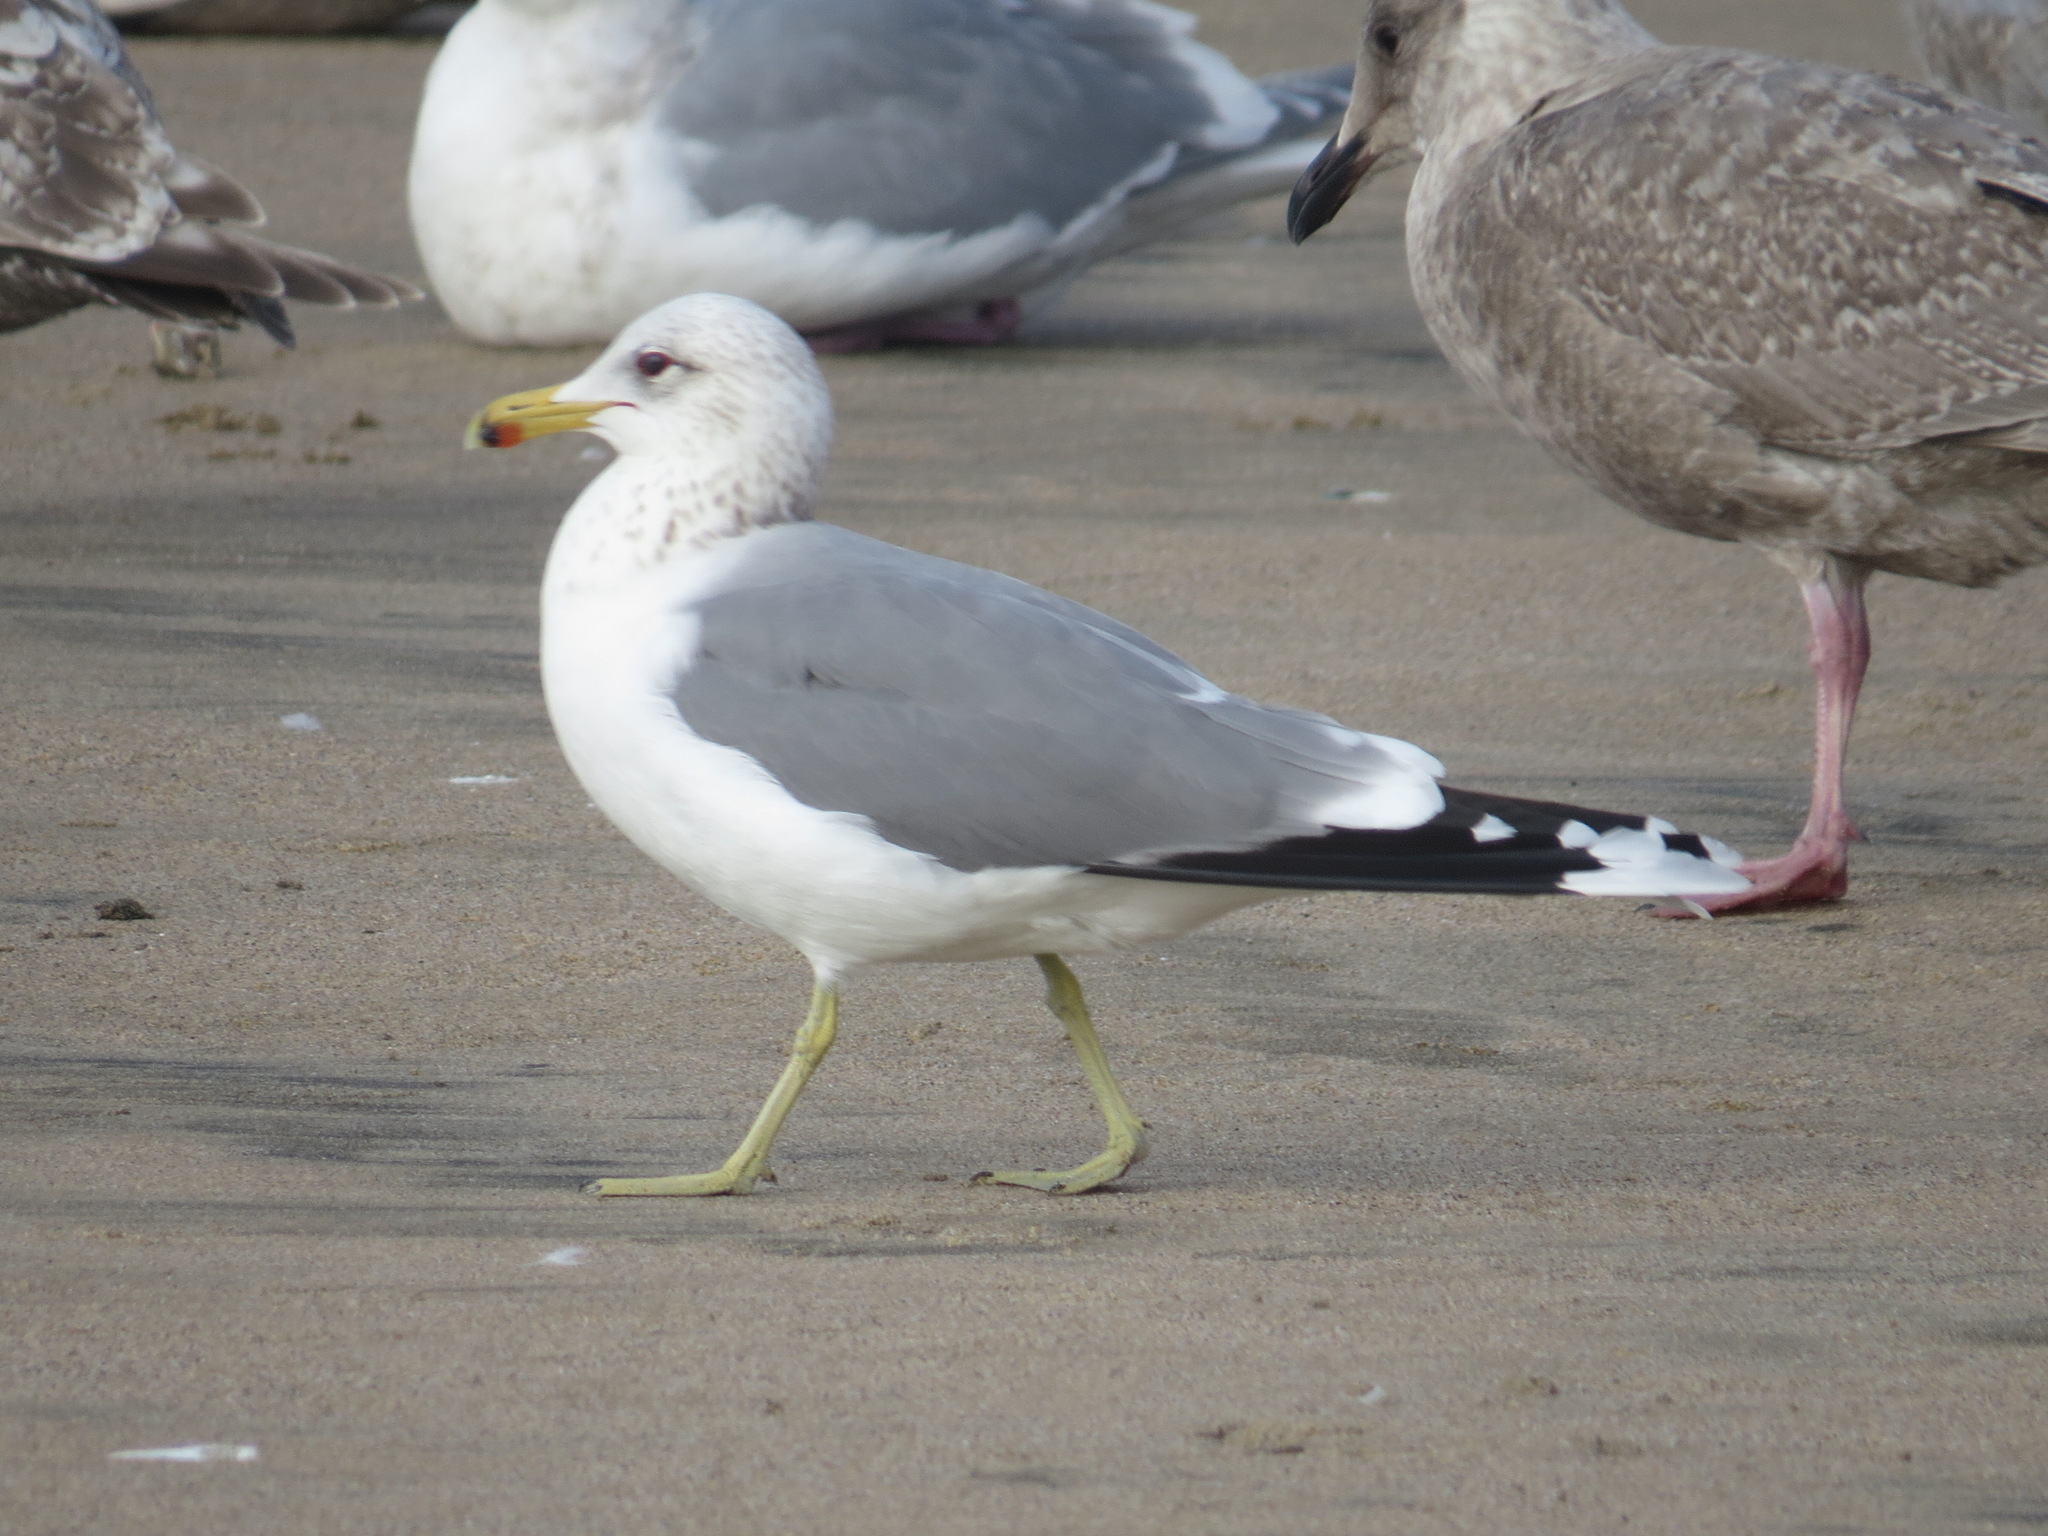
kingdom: Animalia
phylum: Chordata
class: Aves
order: Charadriiformes
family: Laridae
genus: Larus
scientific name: Larus californicus
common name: California gull
